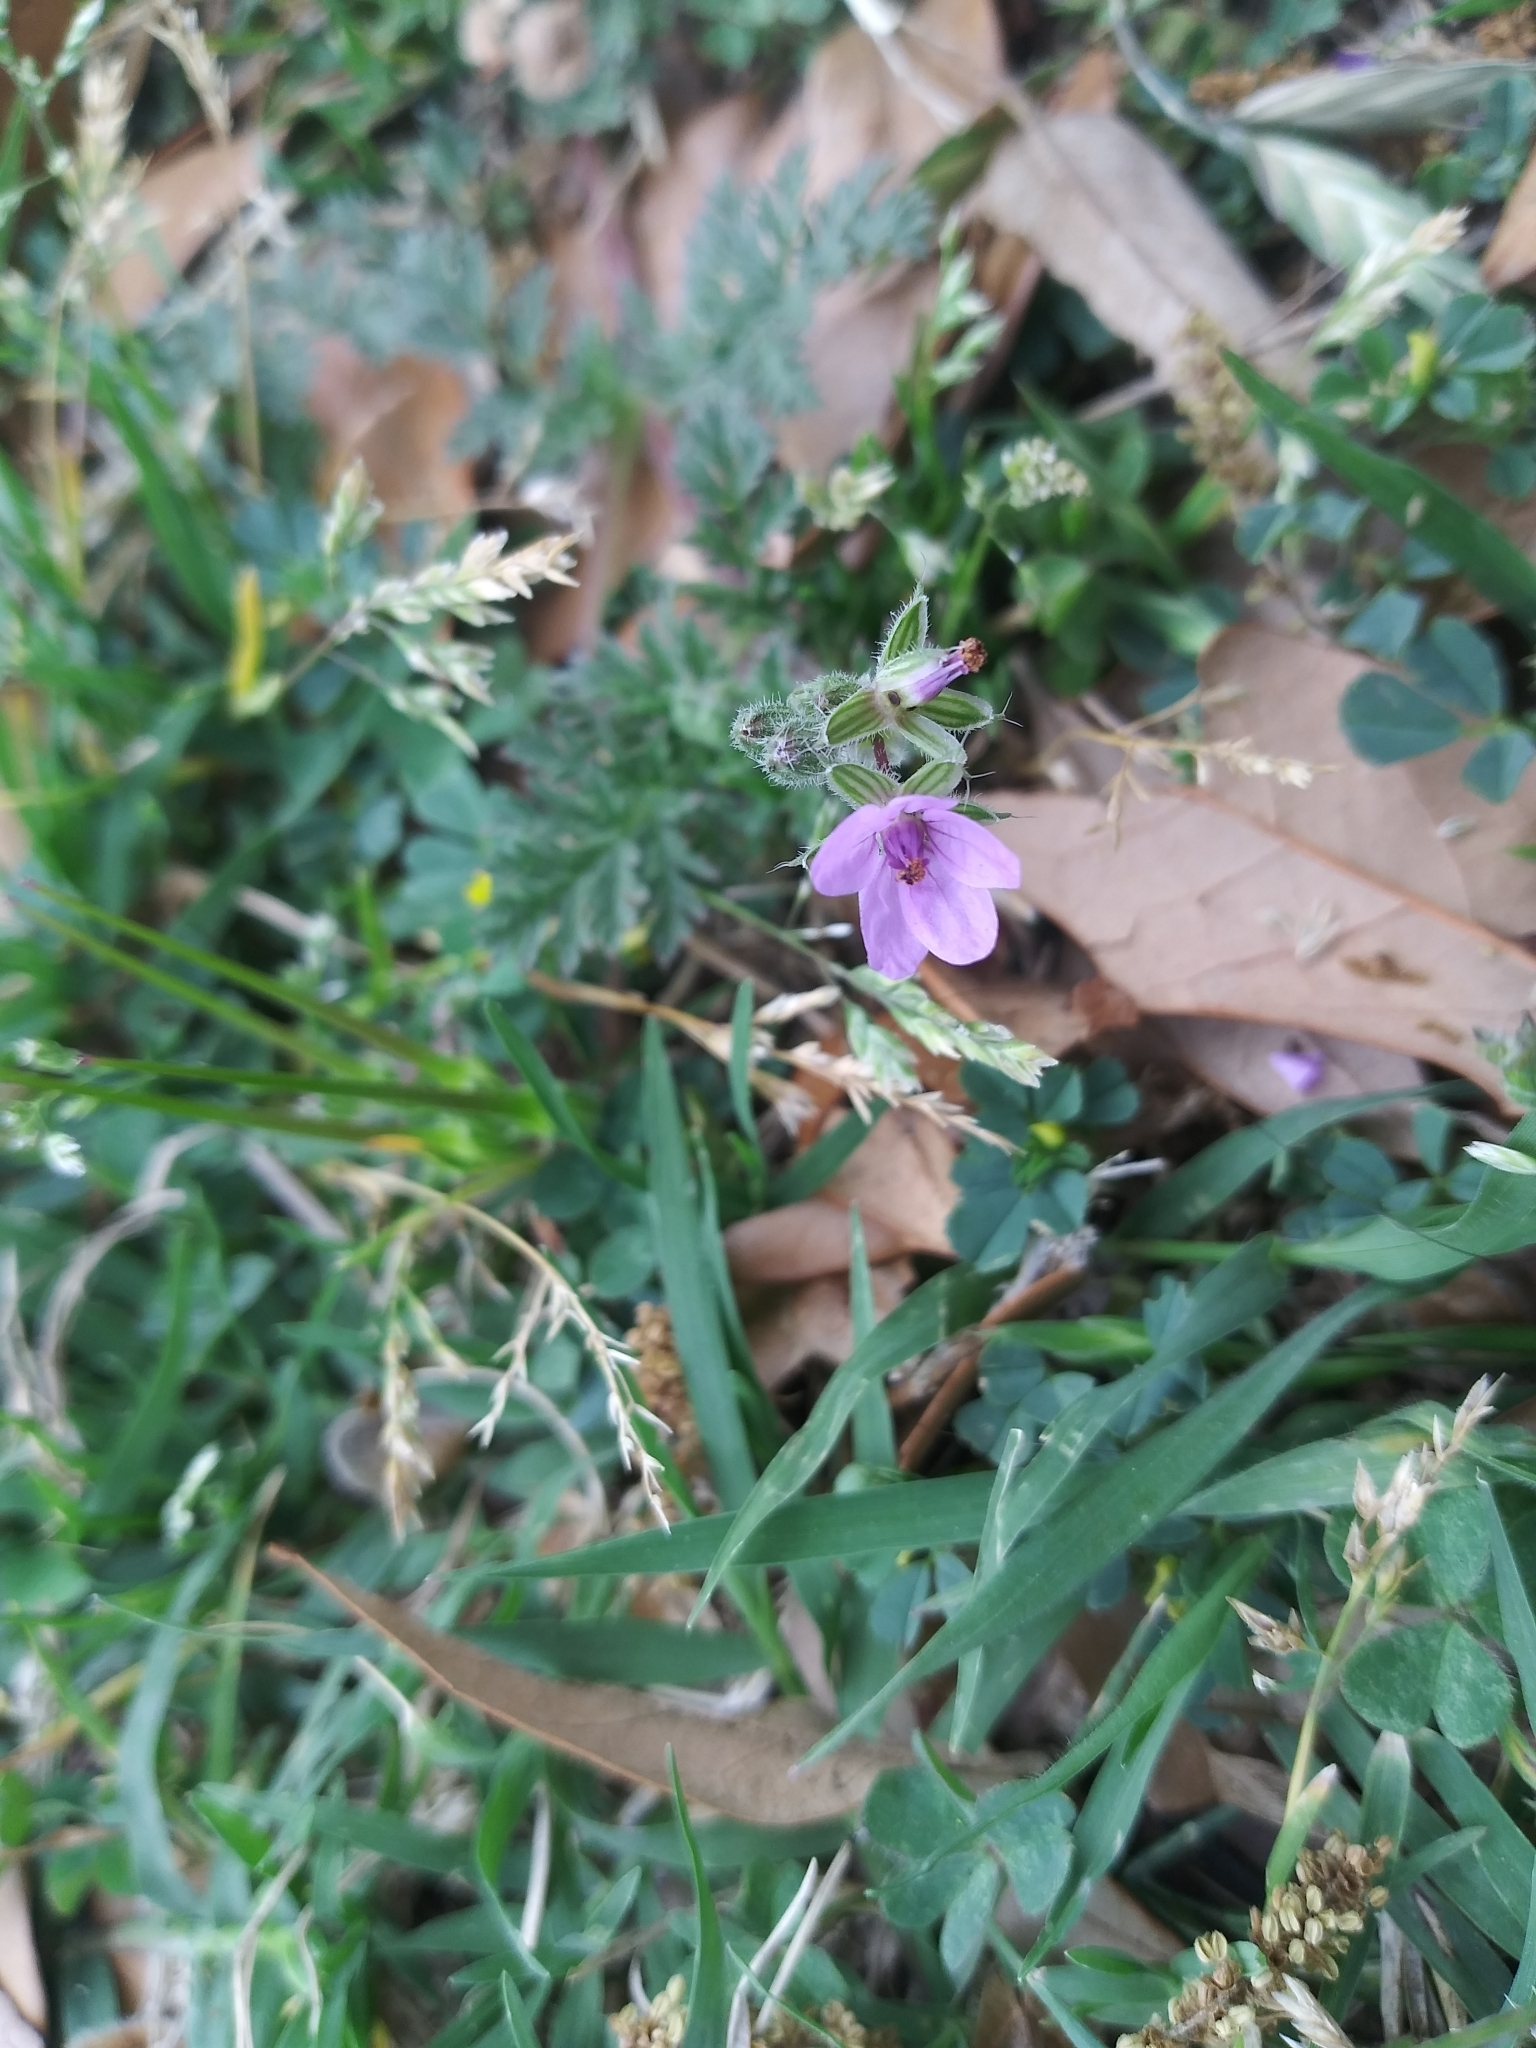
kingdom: Plantae
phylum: Tracheophyta
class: Magnoliopsida
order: Geraniales
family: Geraniaceae
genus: Erodium
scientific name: Erodium cicutarium
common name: Common stork's-bill
